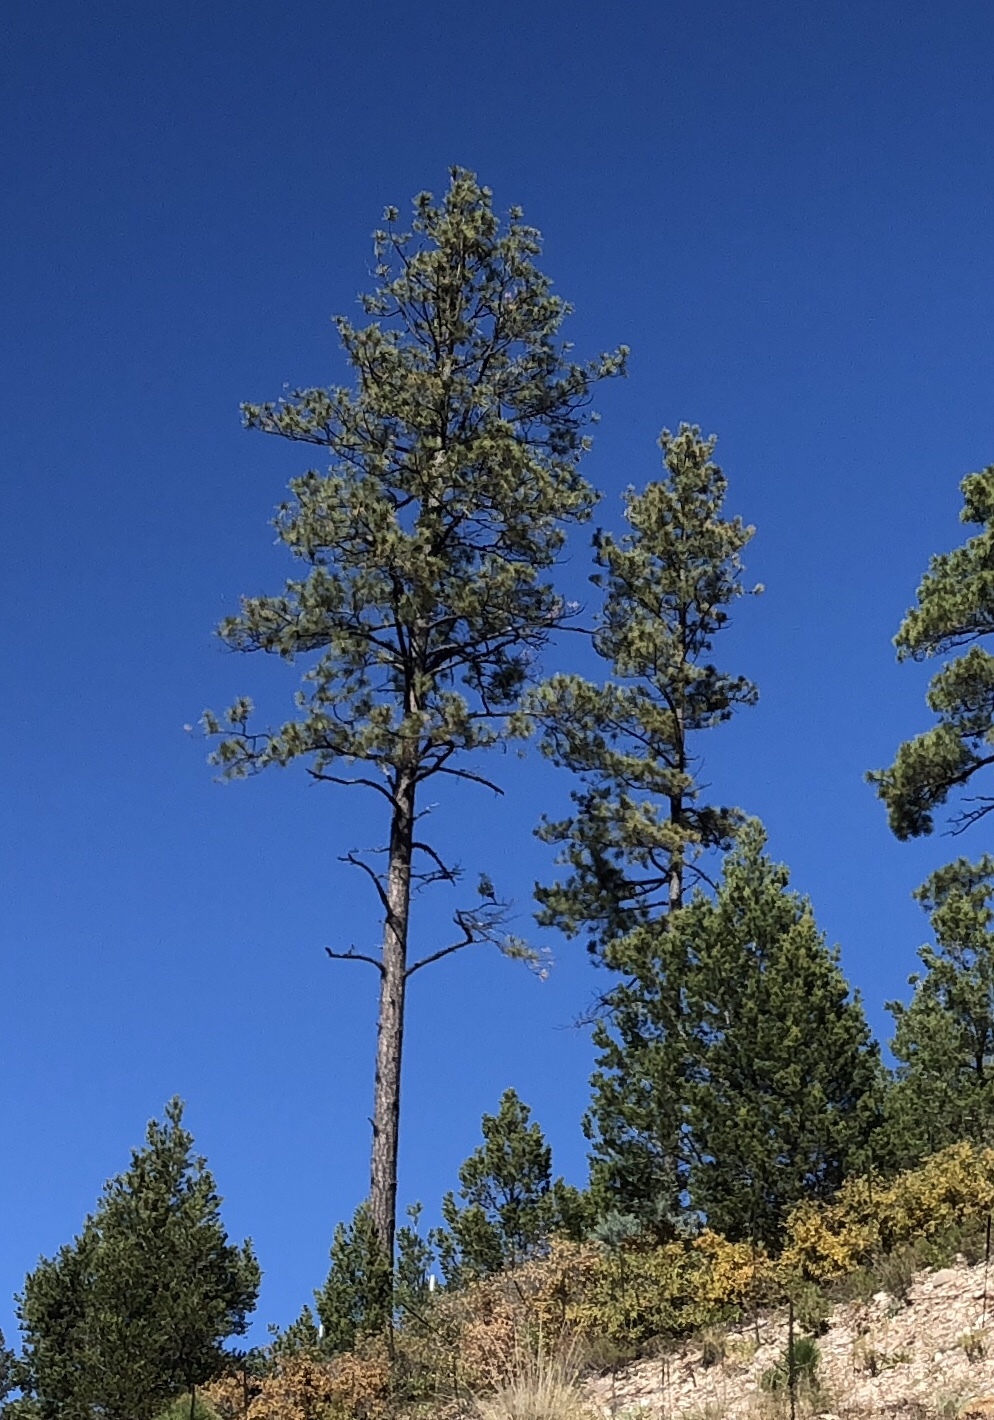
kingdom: Plantae
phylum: Tracheophyta
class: Pinopsida
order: Pinales
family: Pinaceae
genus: Pinus
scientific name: Pinus ponderosa
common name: Western yellow-pine
